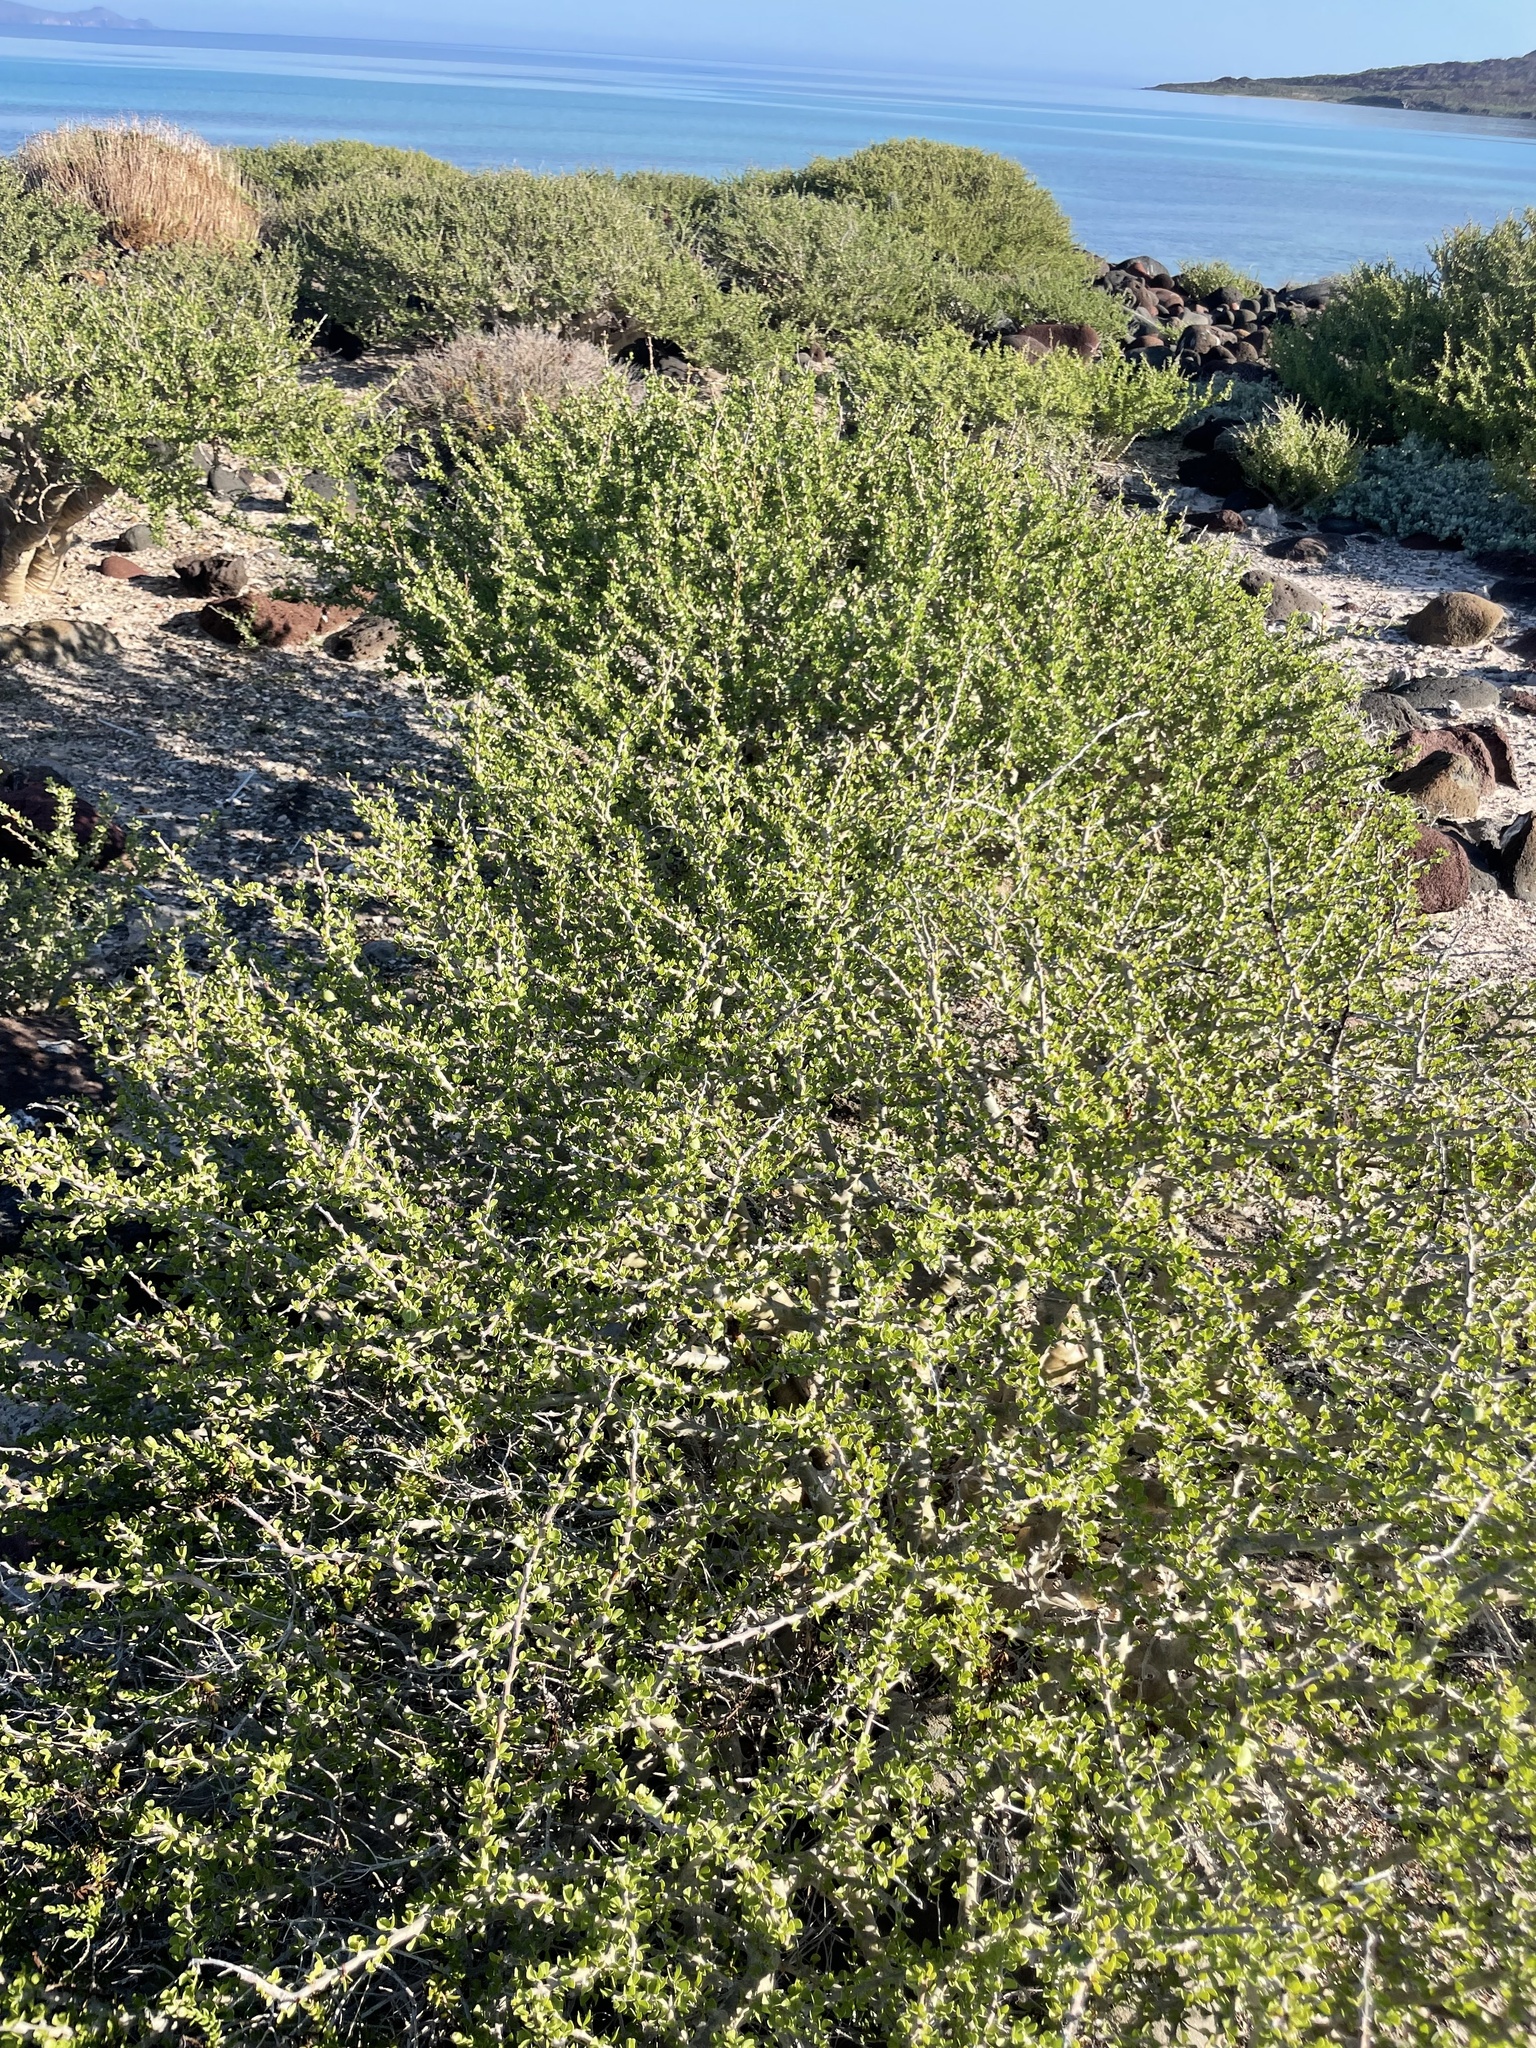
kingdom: Plantae
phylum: Tracheophyta
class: Magnoliopsida
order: Malpighiales
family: Euphorbiaceae
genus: Jatropha
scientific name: Jatropha cuneata
